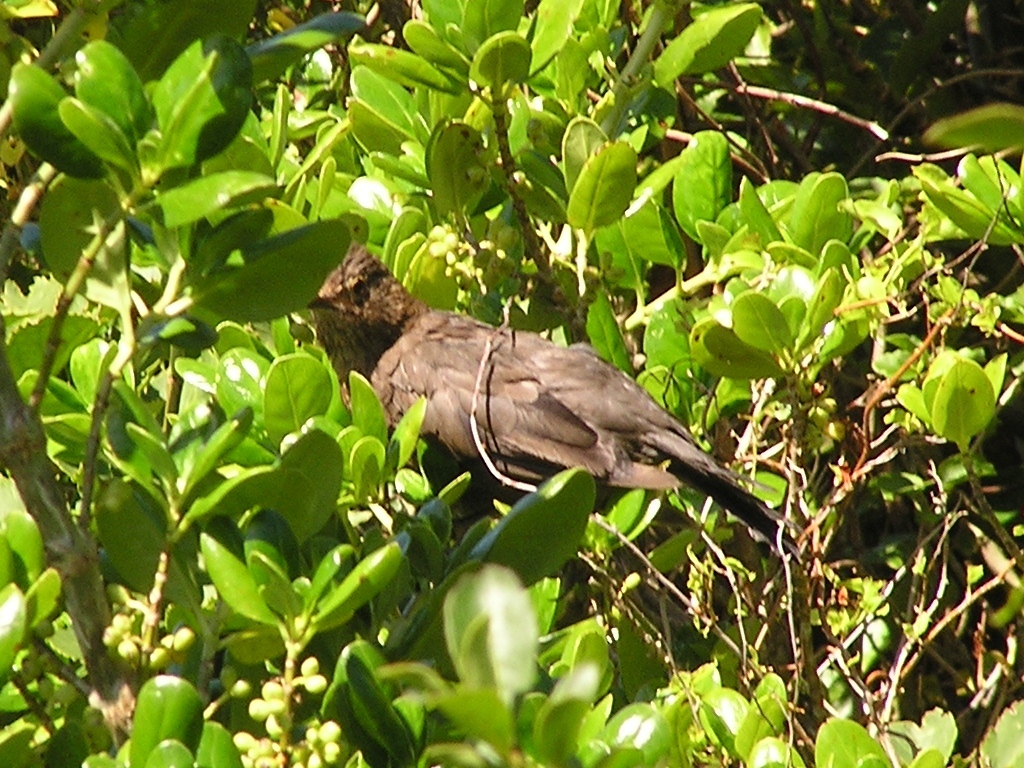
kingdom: Animalia
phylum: Chordata
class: Aves
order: Passeriformes
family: Turdidae
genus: Turdus
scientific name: Turdus merula
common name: Common blackbird
